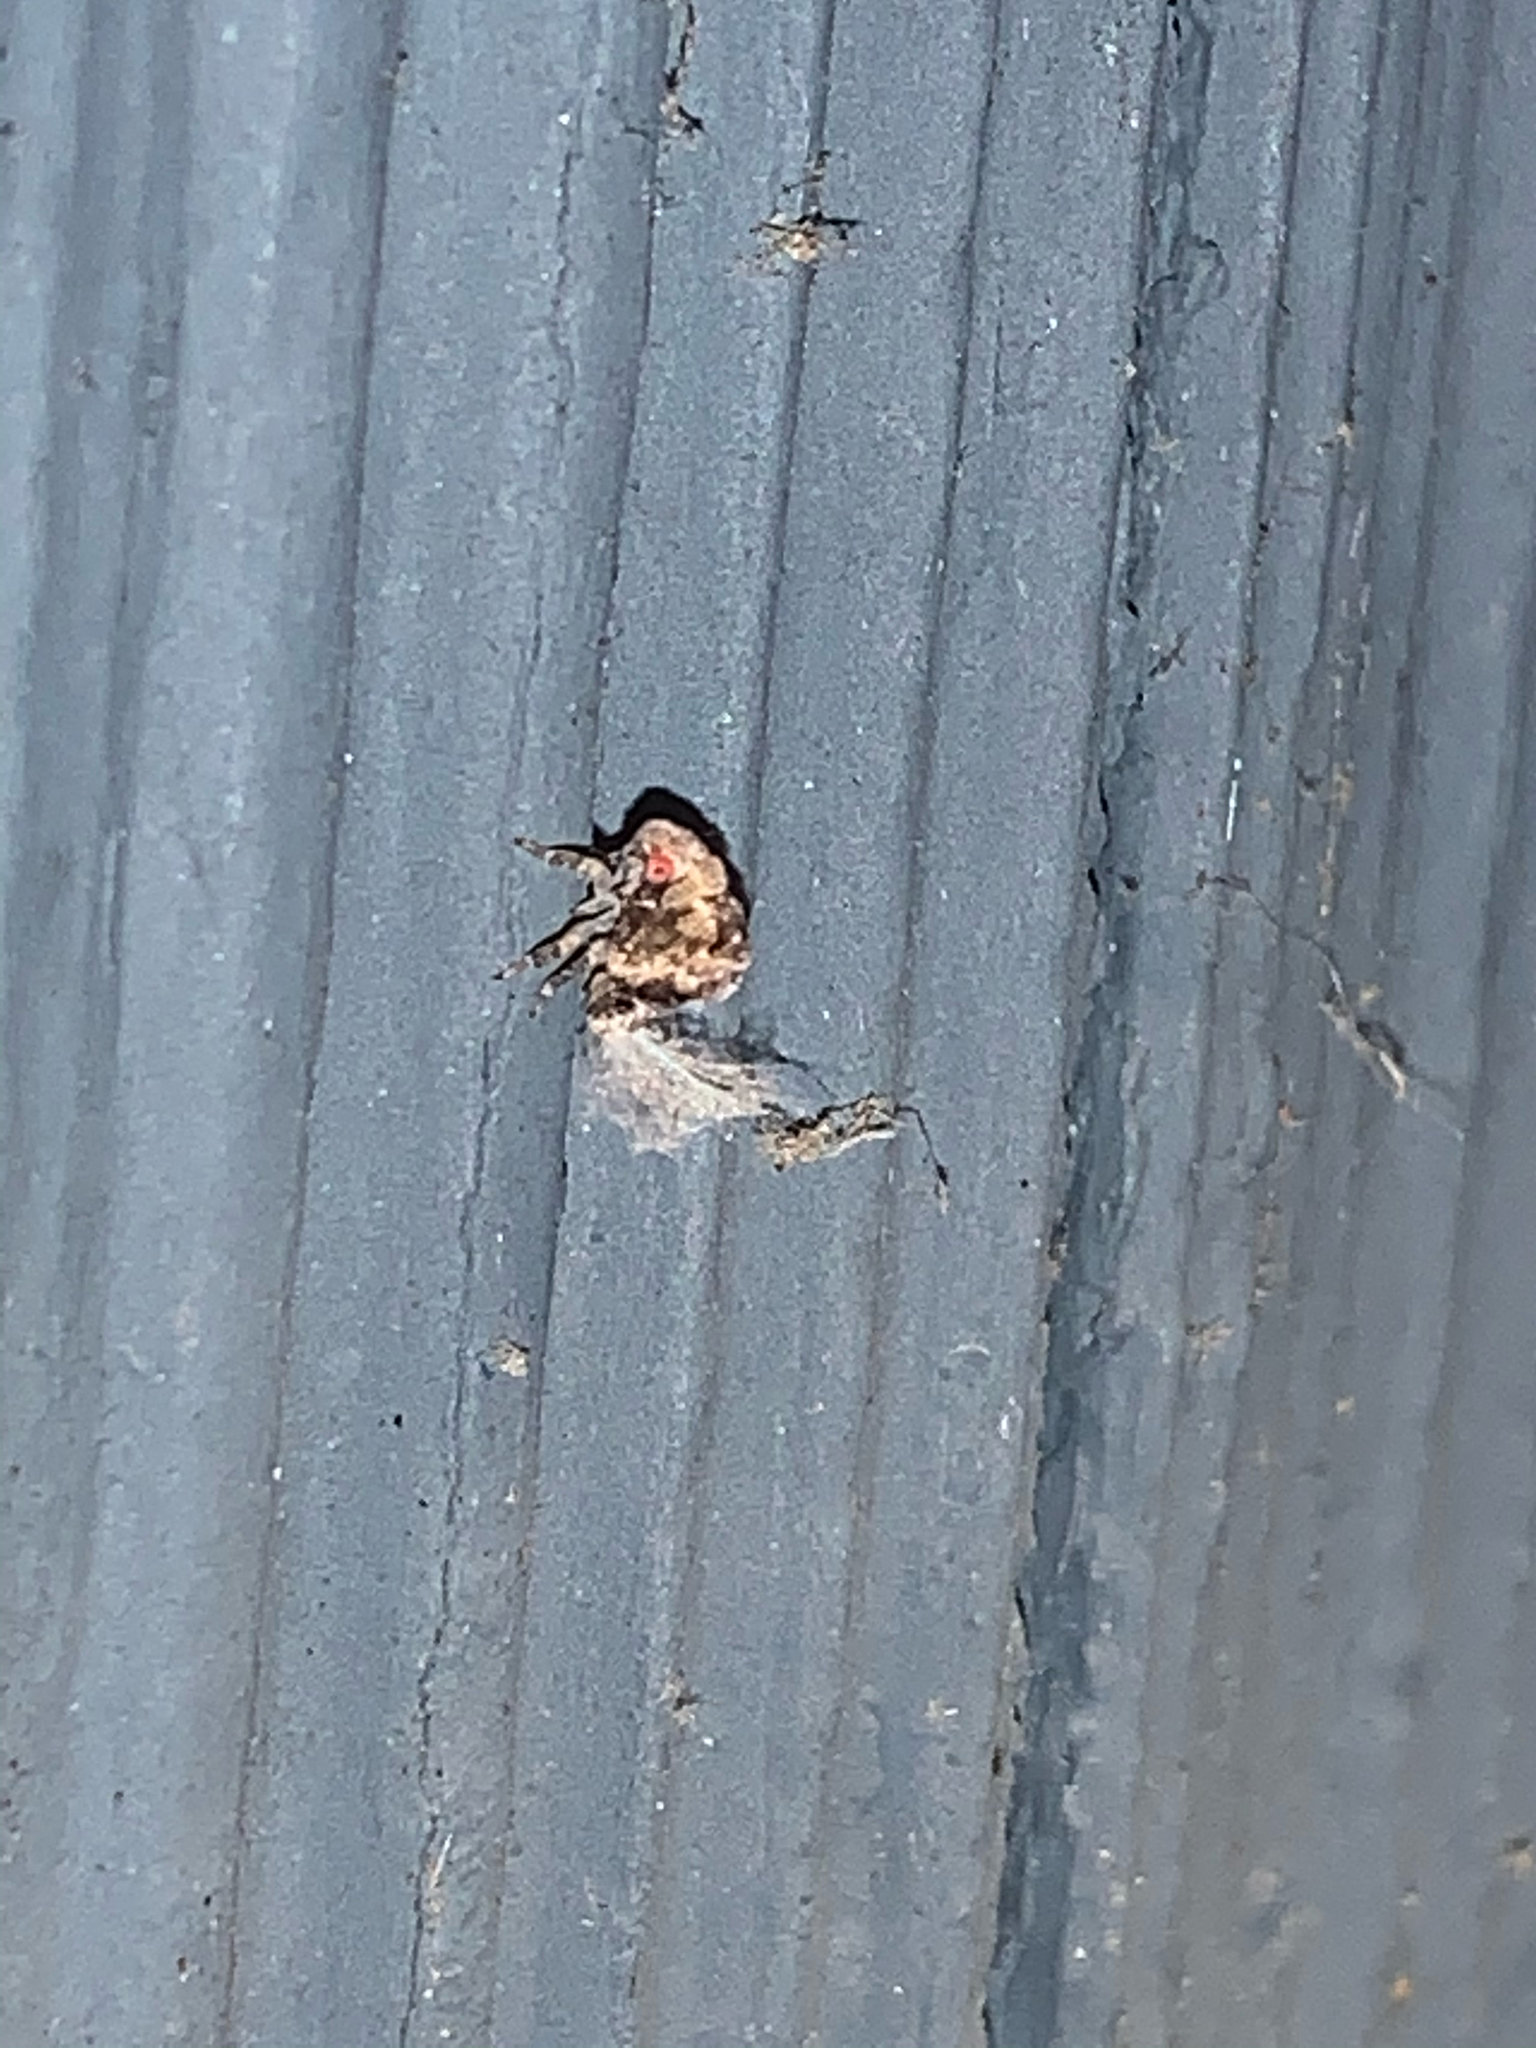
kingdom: Animalia
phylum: Arthropoda
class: Insecta
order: Hemiptera
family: Acanaloniidae
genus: Acanalonia
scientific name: Acanalonia
